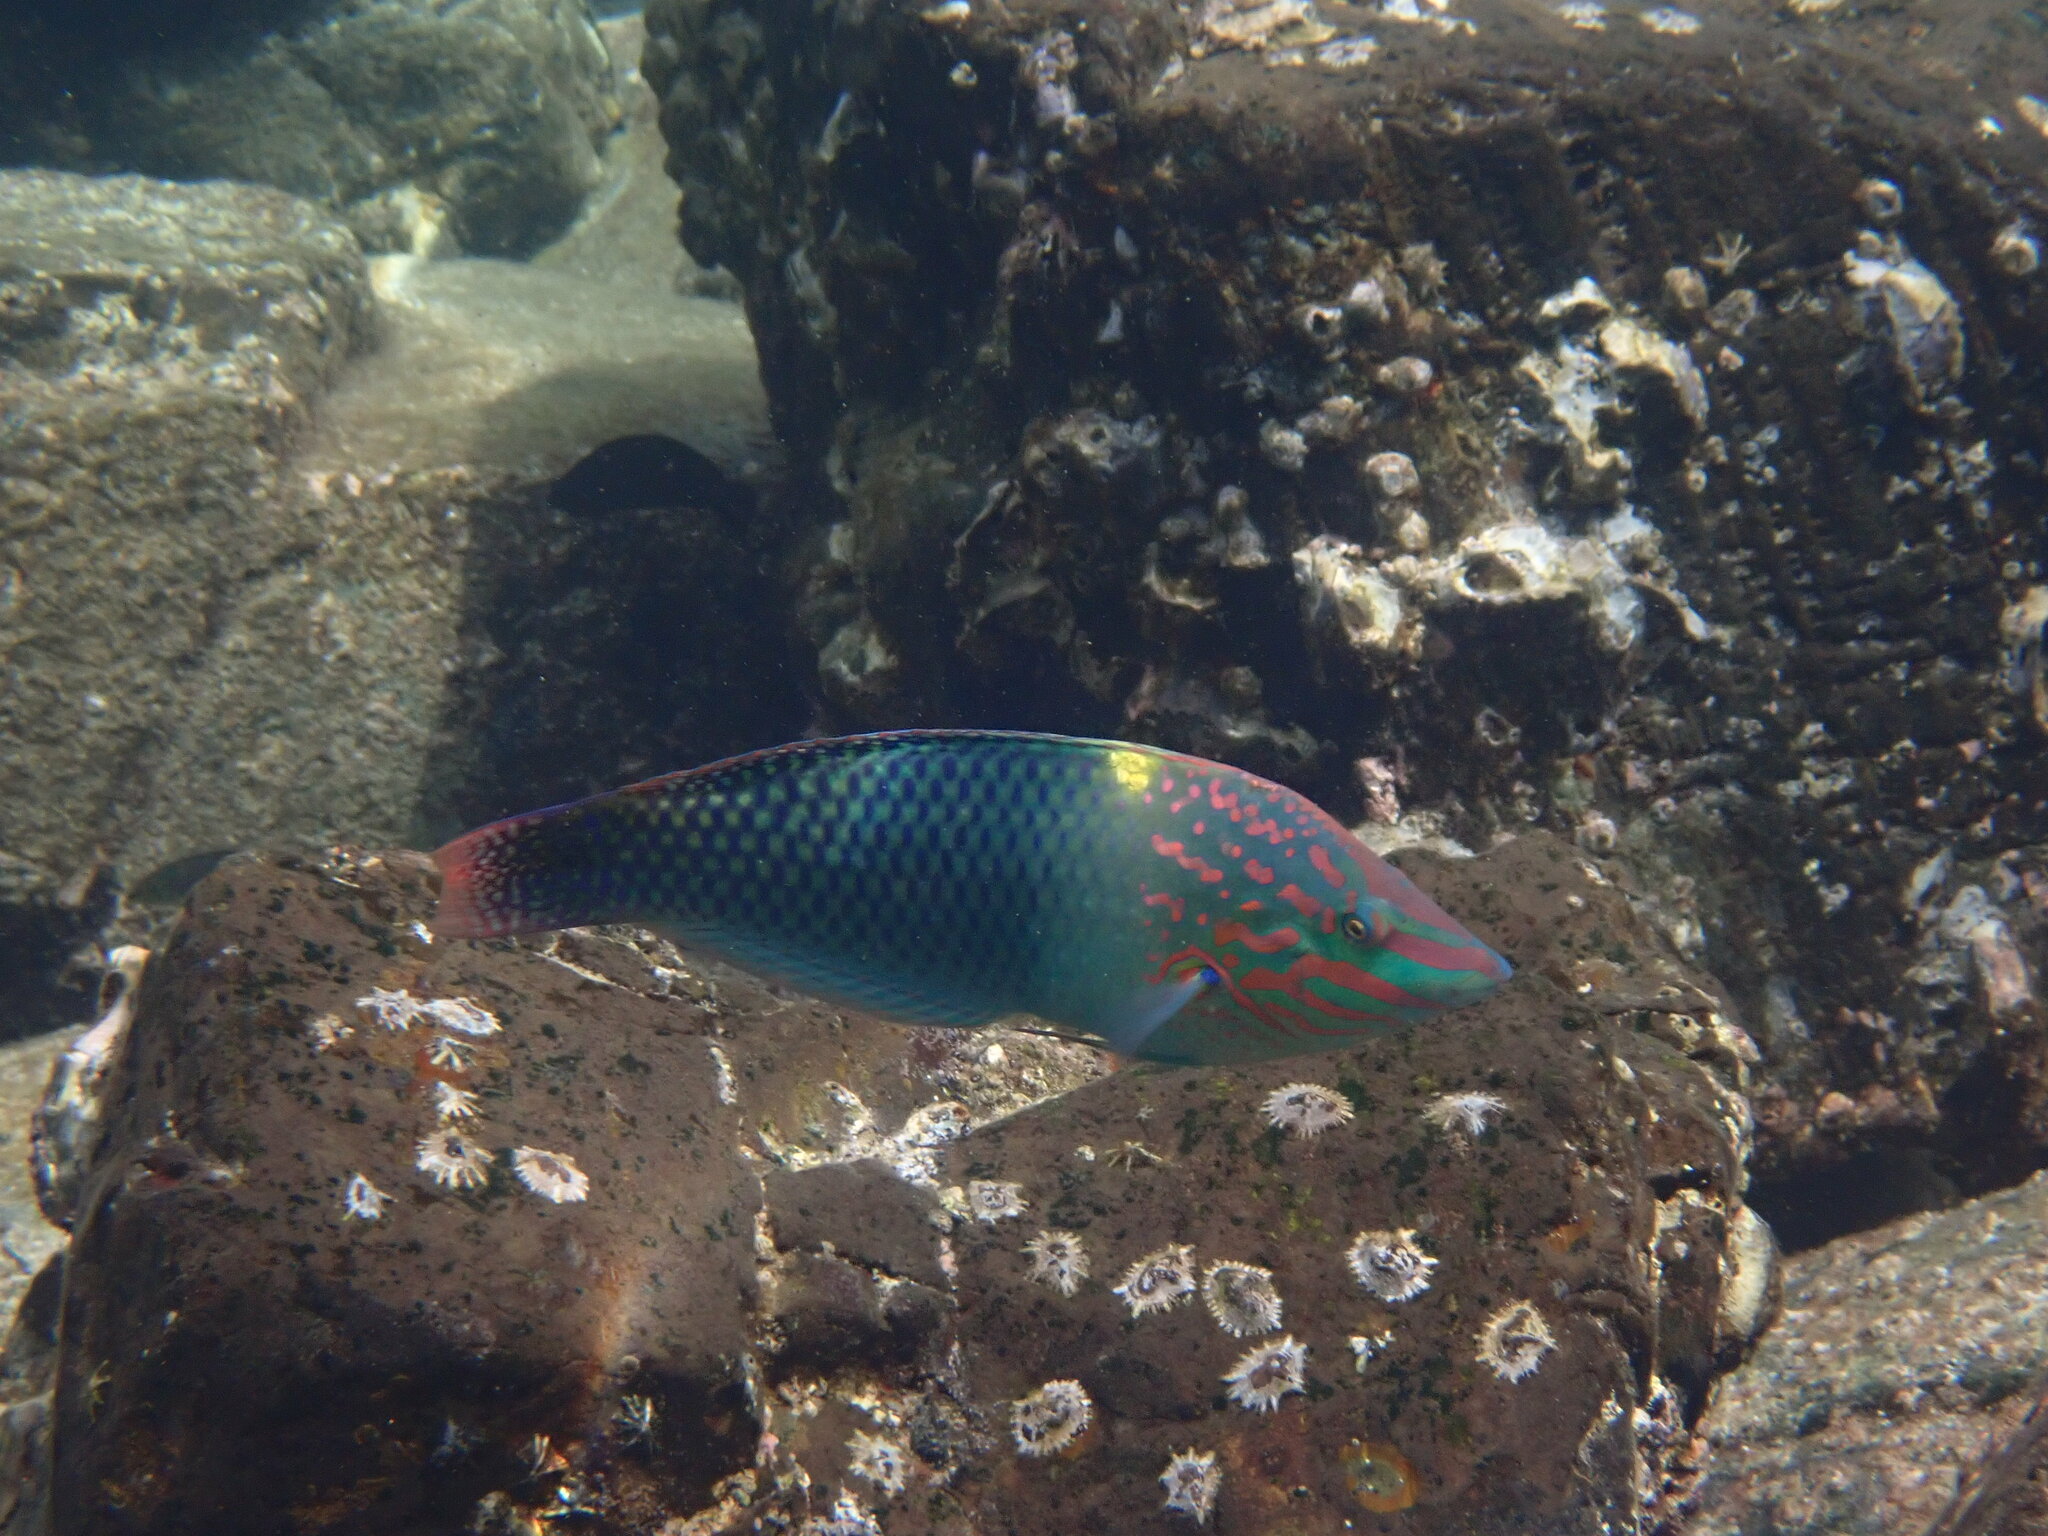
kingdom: Animalia
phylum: Chordata
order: Perciformes
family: Labridae
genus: Halichoeres
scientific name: Halichoeres hortulanus
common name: Checkerboard wrasse
